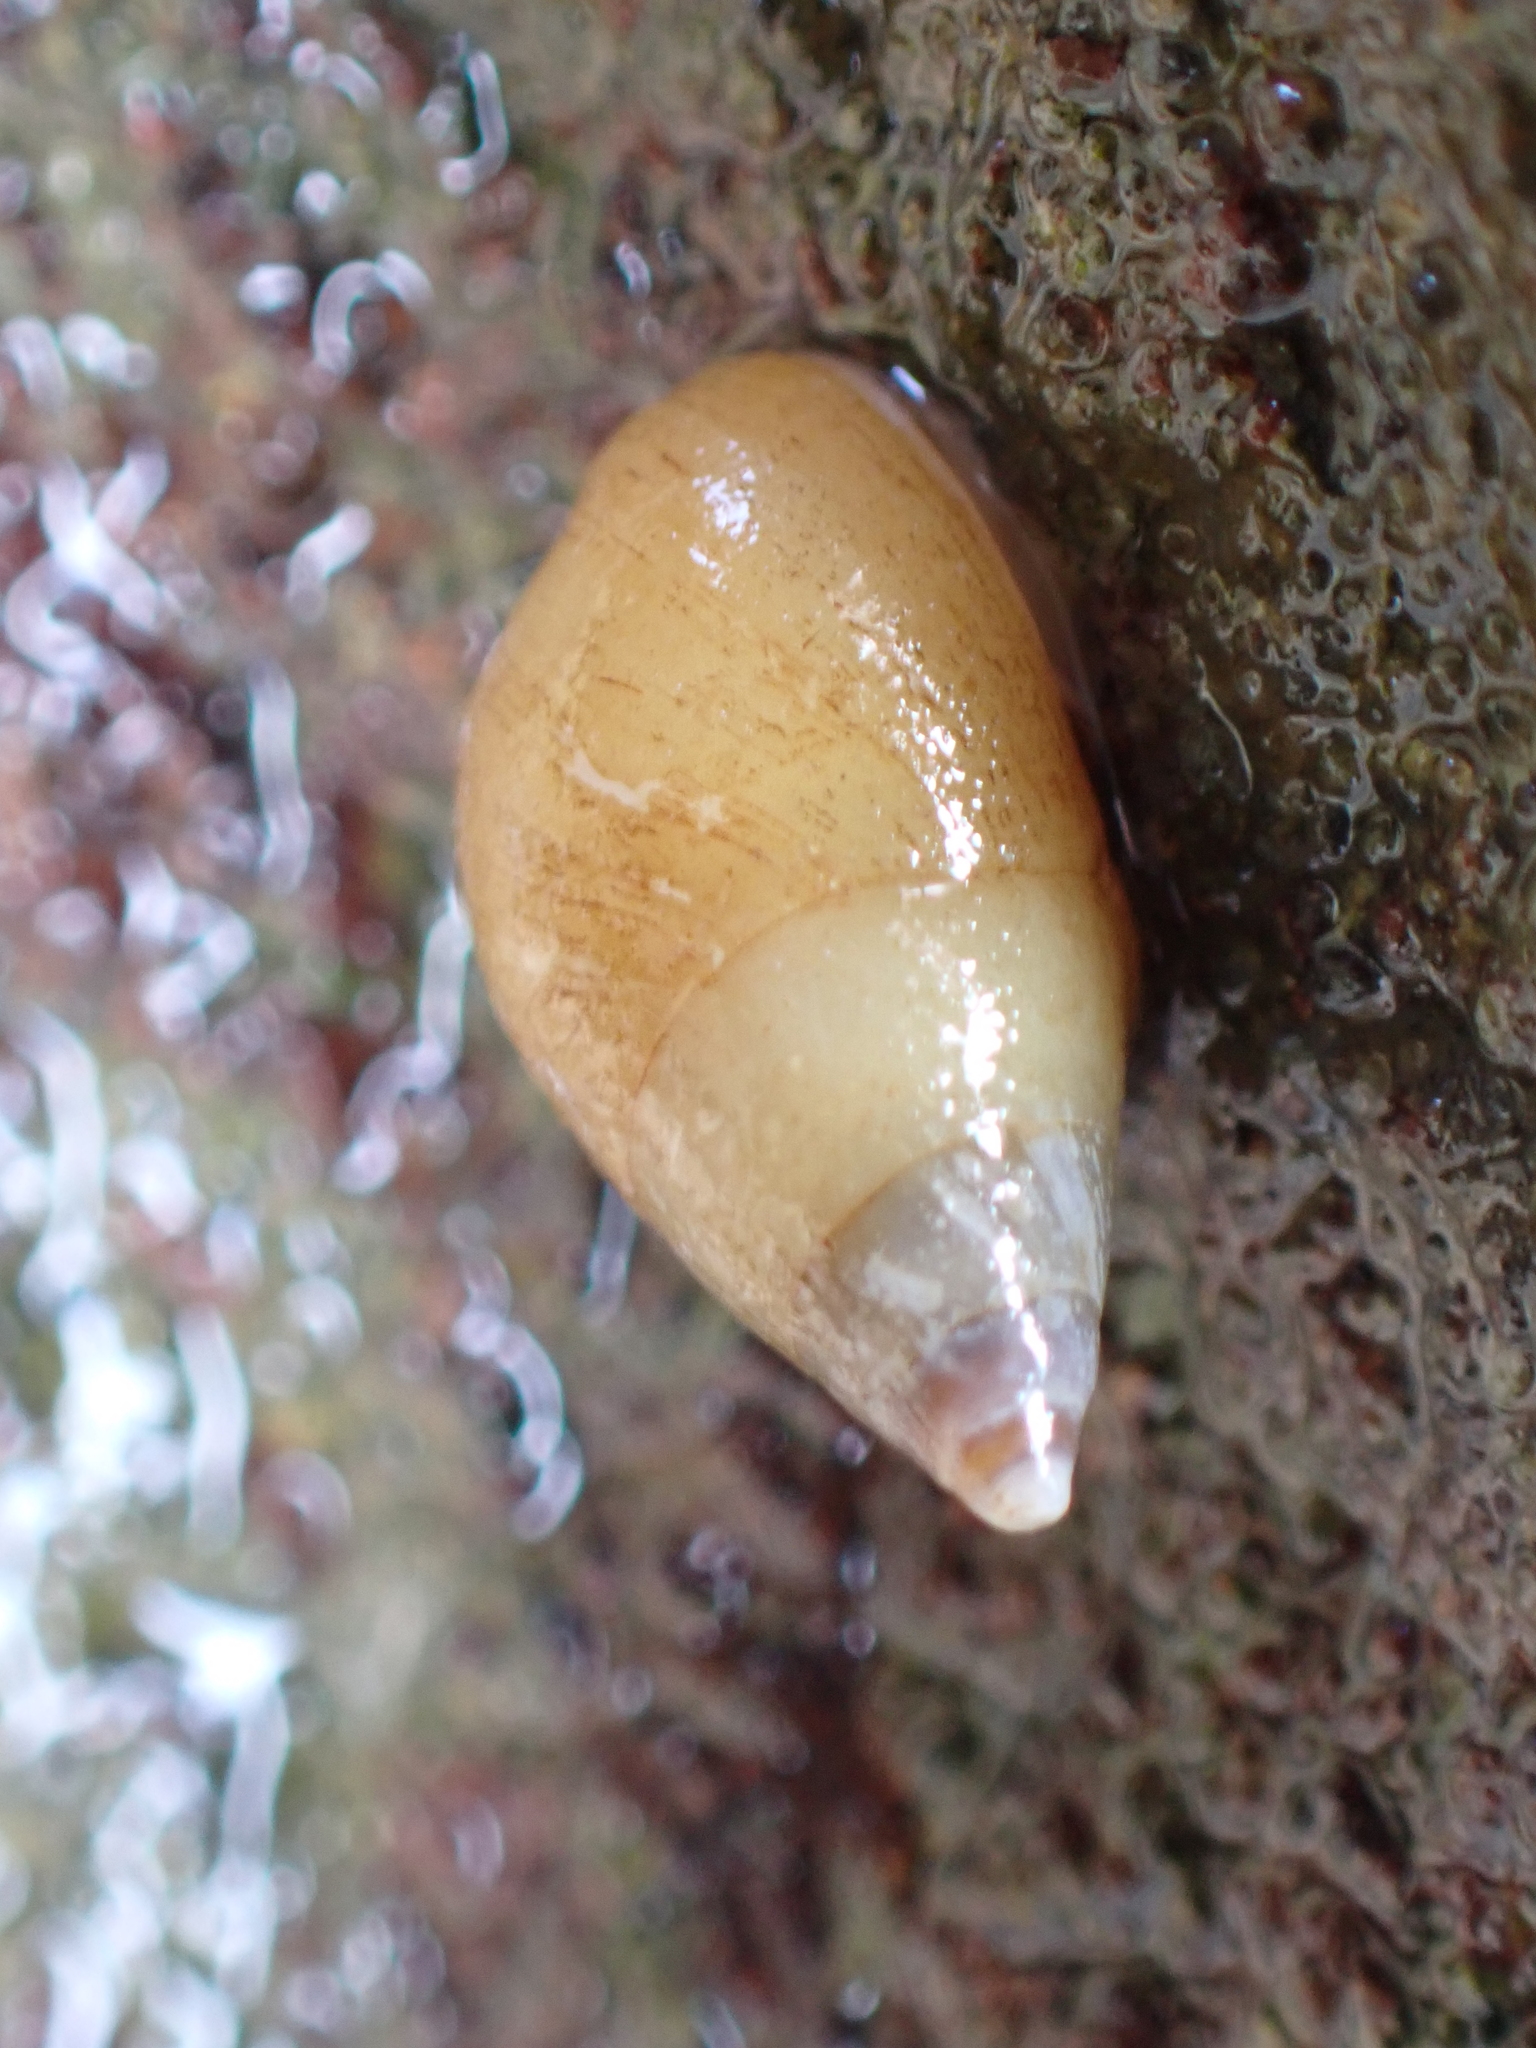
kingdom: Animalia
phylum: Mollusca
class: Gastropoda
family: Planaxidae
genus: Hinea
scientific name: Hinea brasiliana
